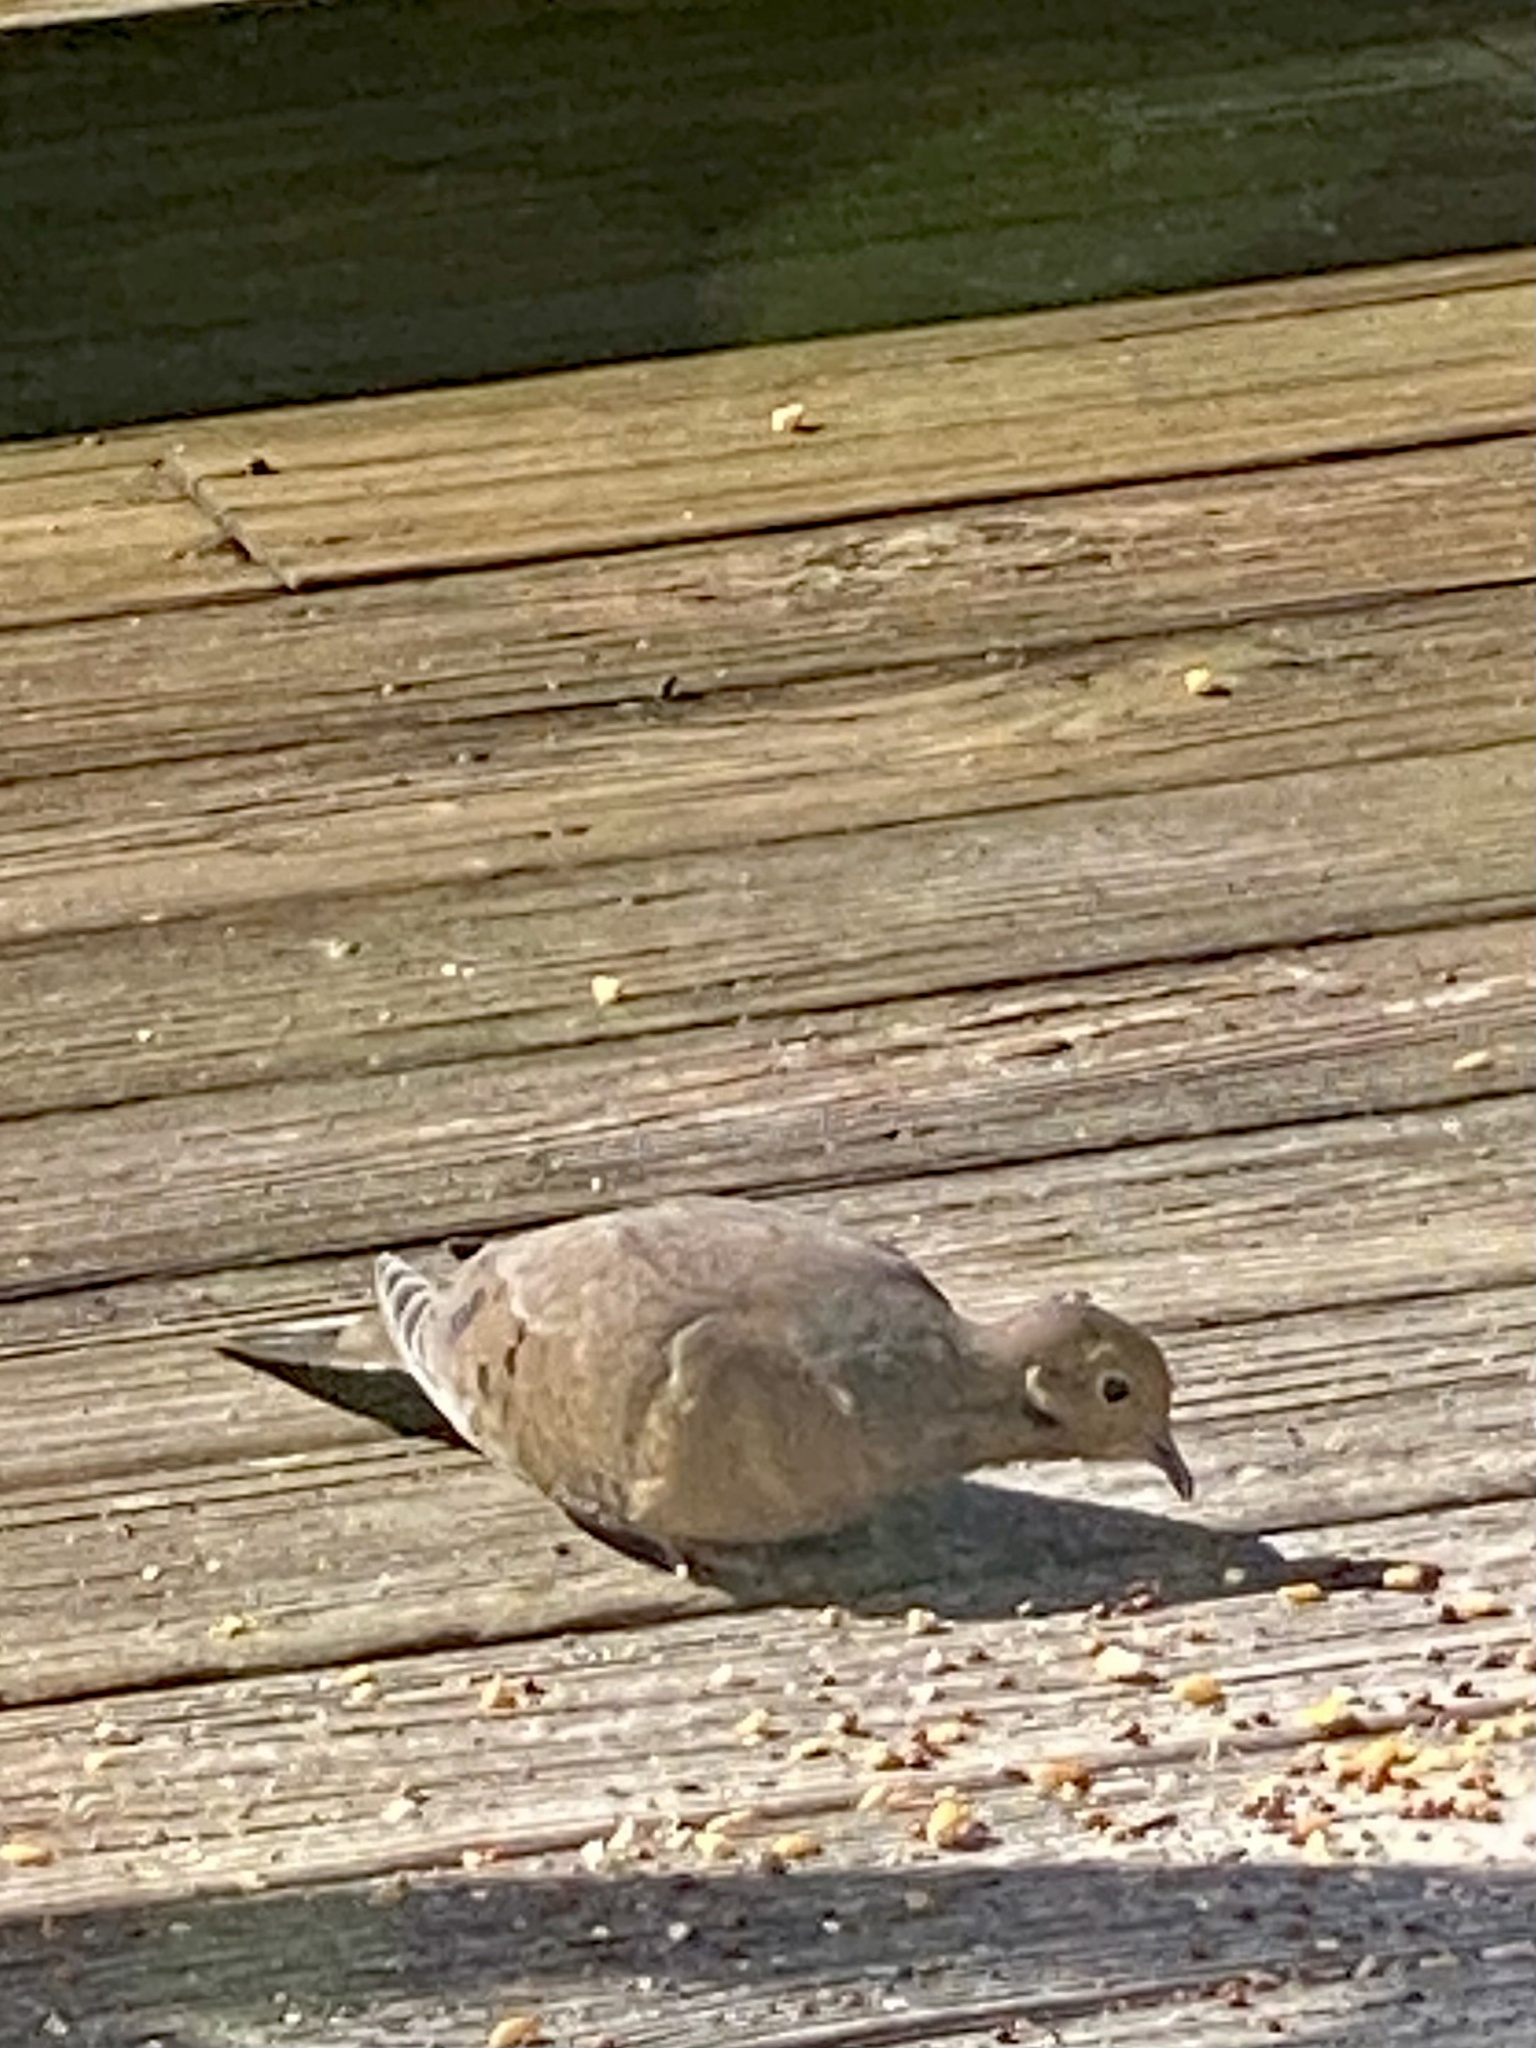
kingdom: Animalia
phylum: Chordata
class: Aves
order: Columbiformes
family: Columbidae
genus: Zenaida
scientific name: Zenaida macroura
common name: Mourning dove
